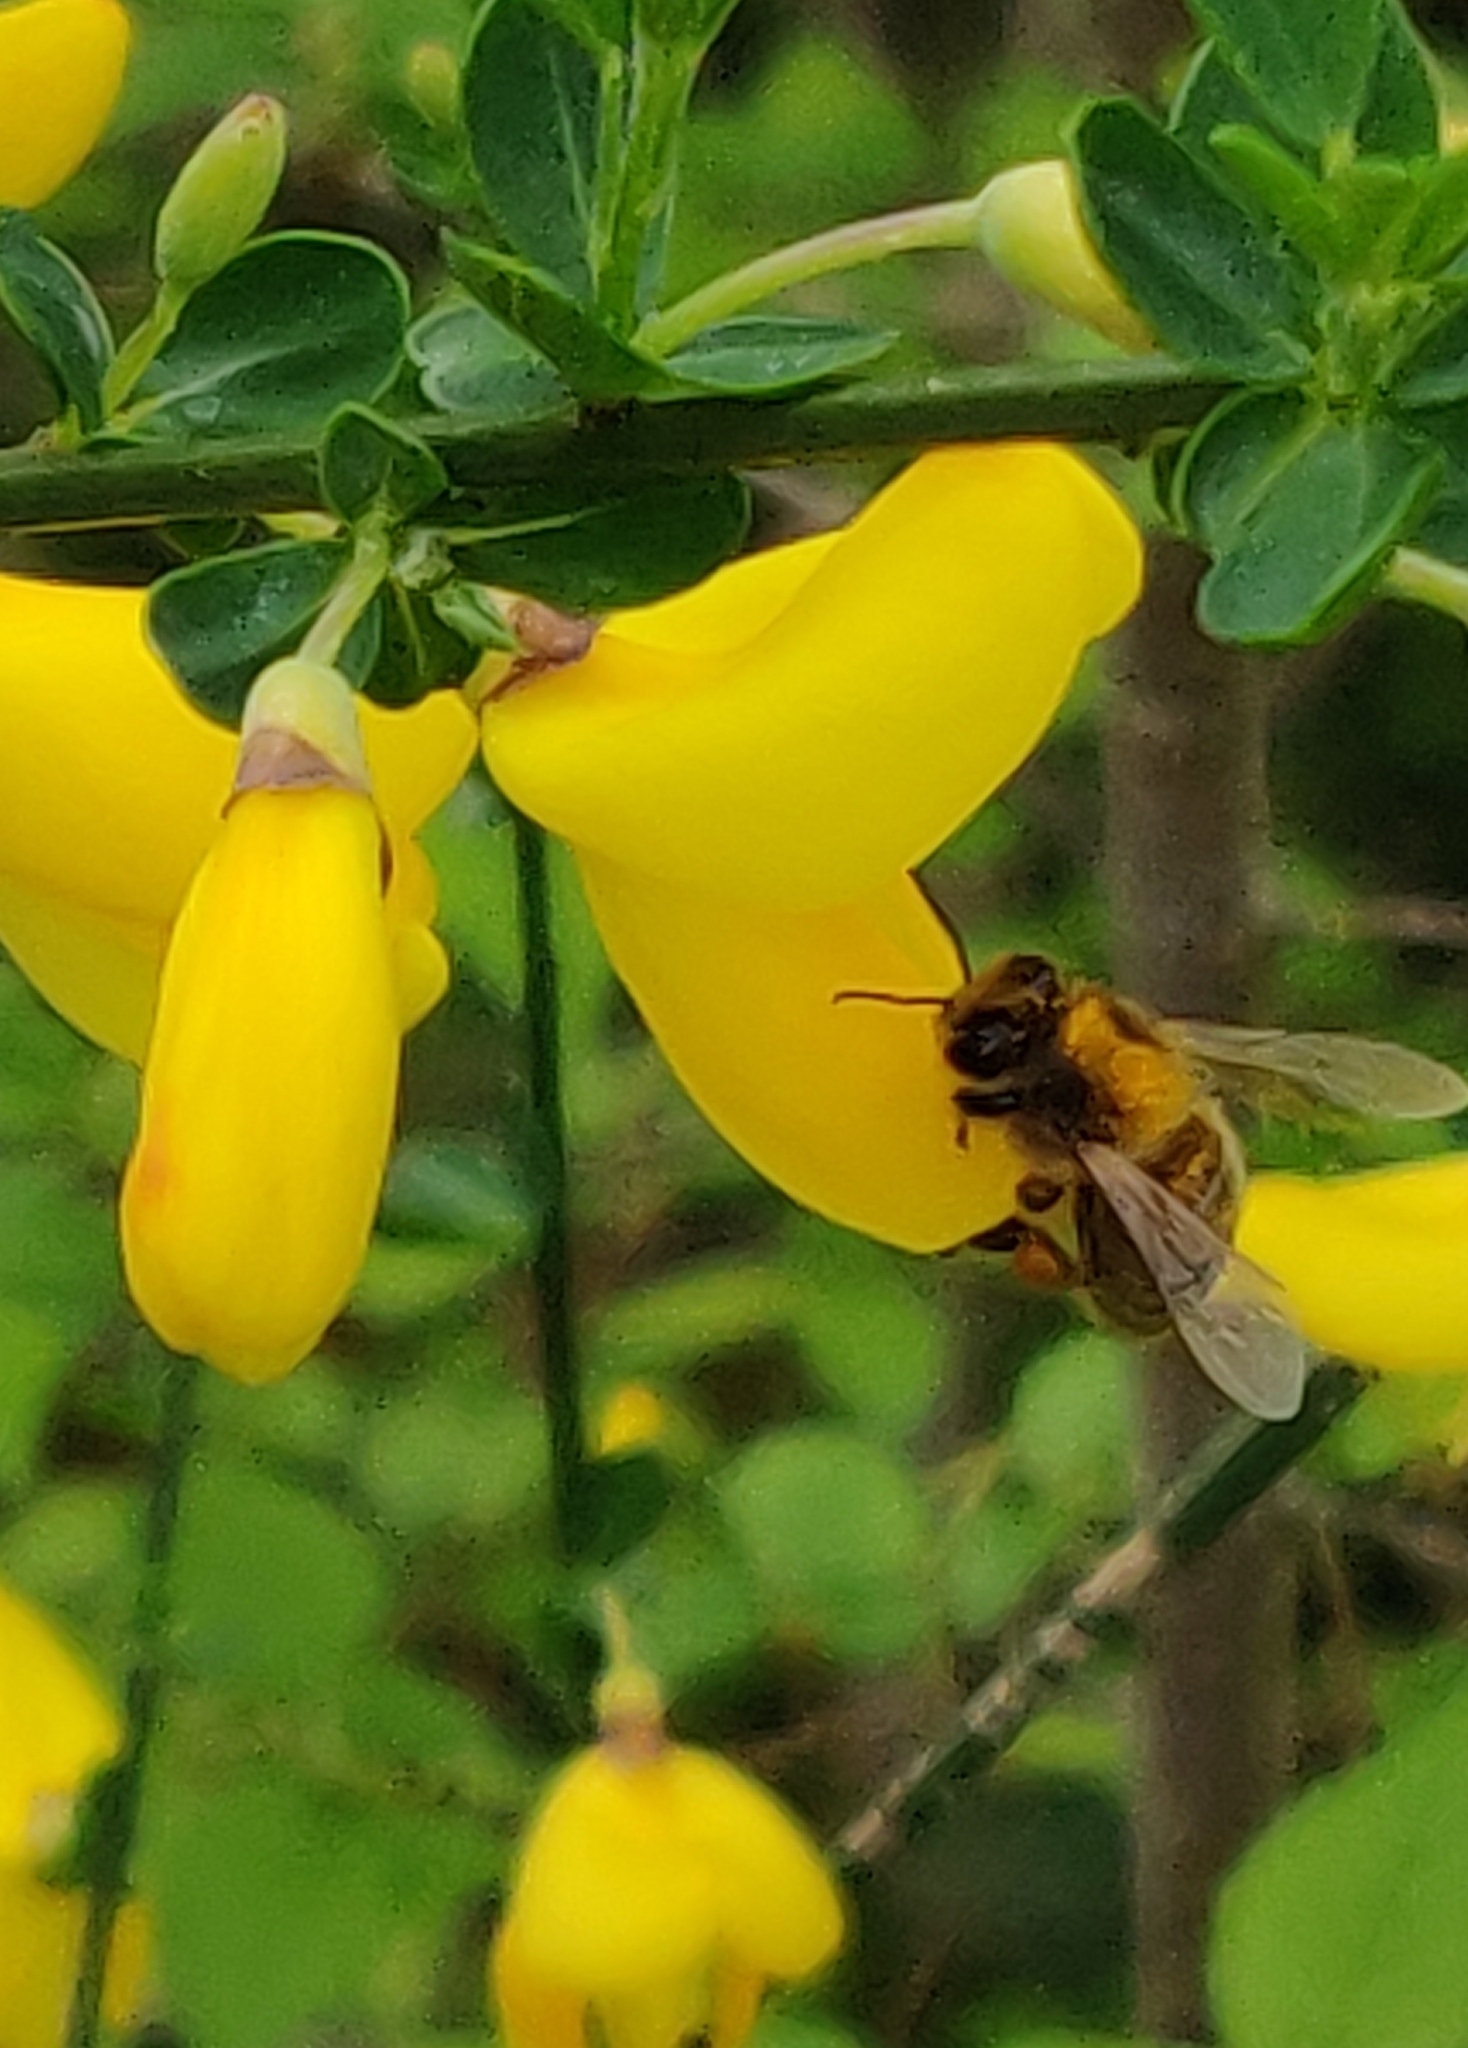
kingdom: Animalia
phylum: Arthropoda
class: Insecta
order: Hymenoptera
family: Apidae
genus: Apis
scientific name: Apis mellifera
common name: Honey bee
